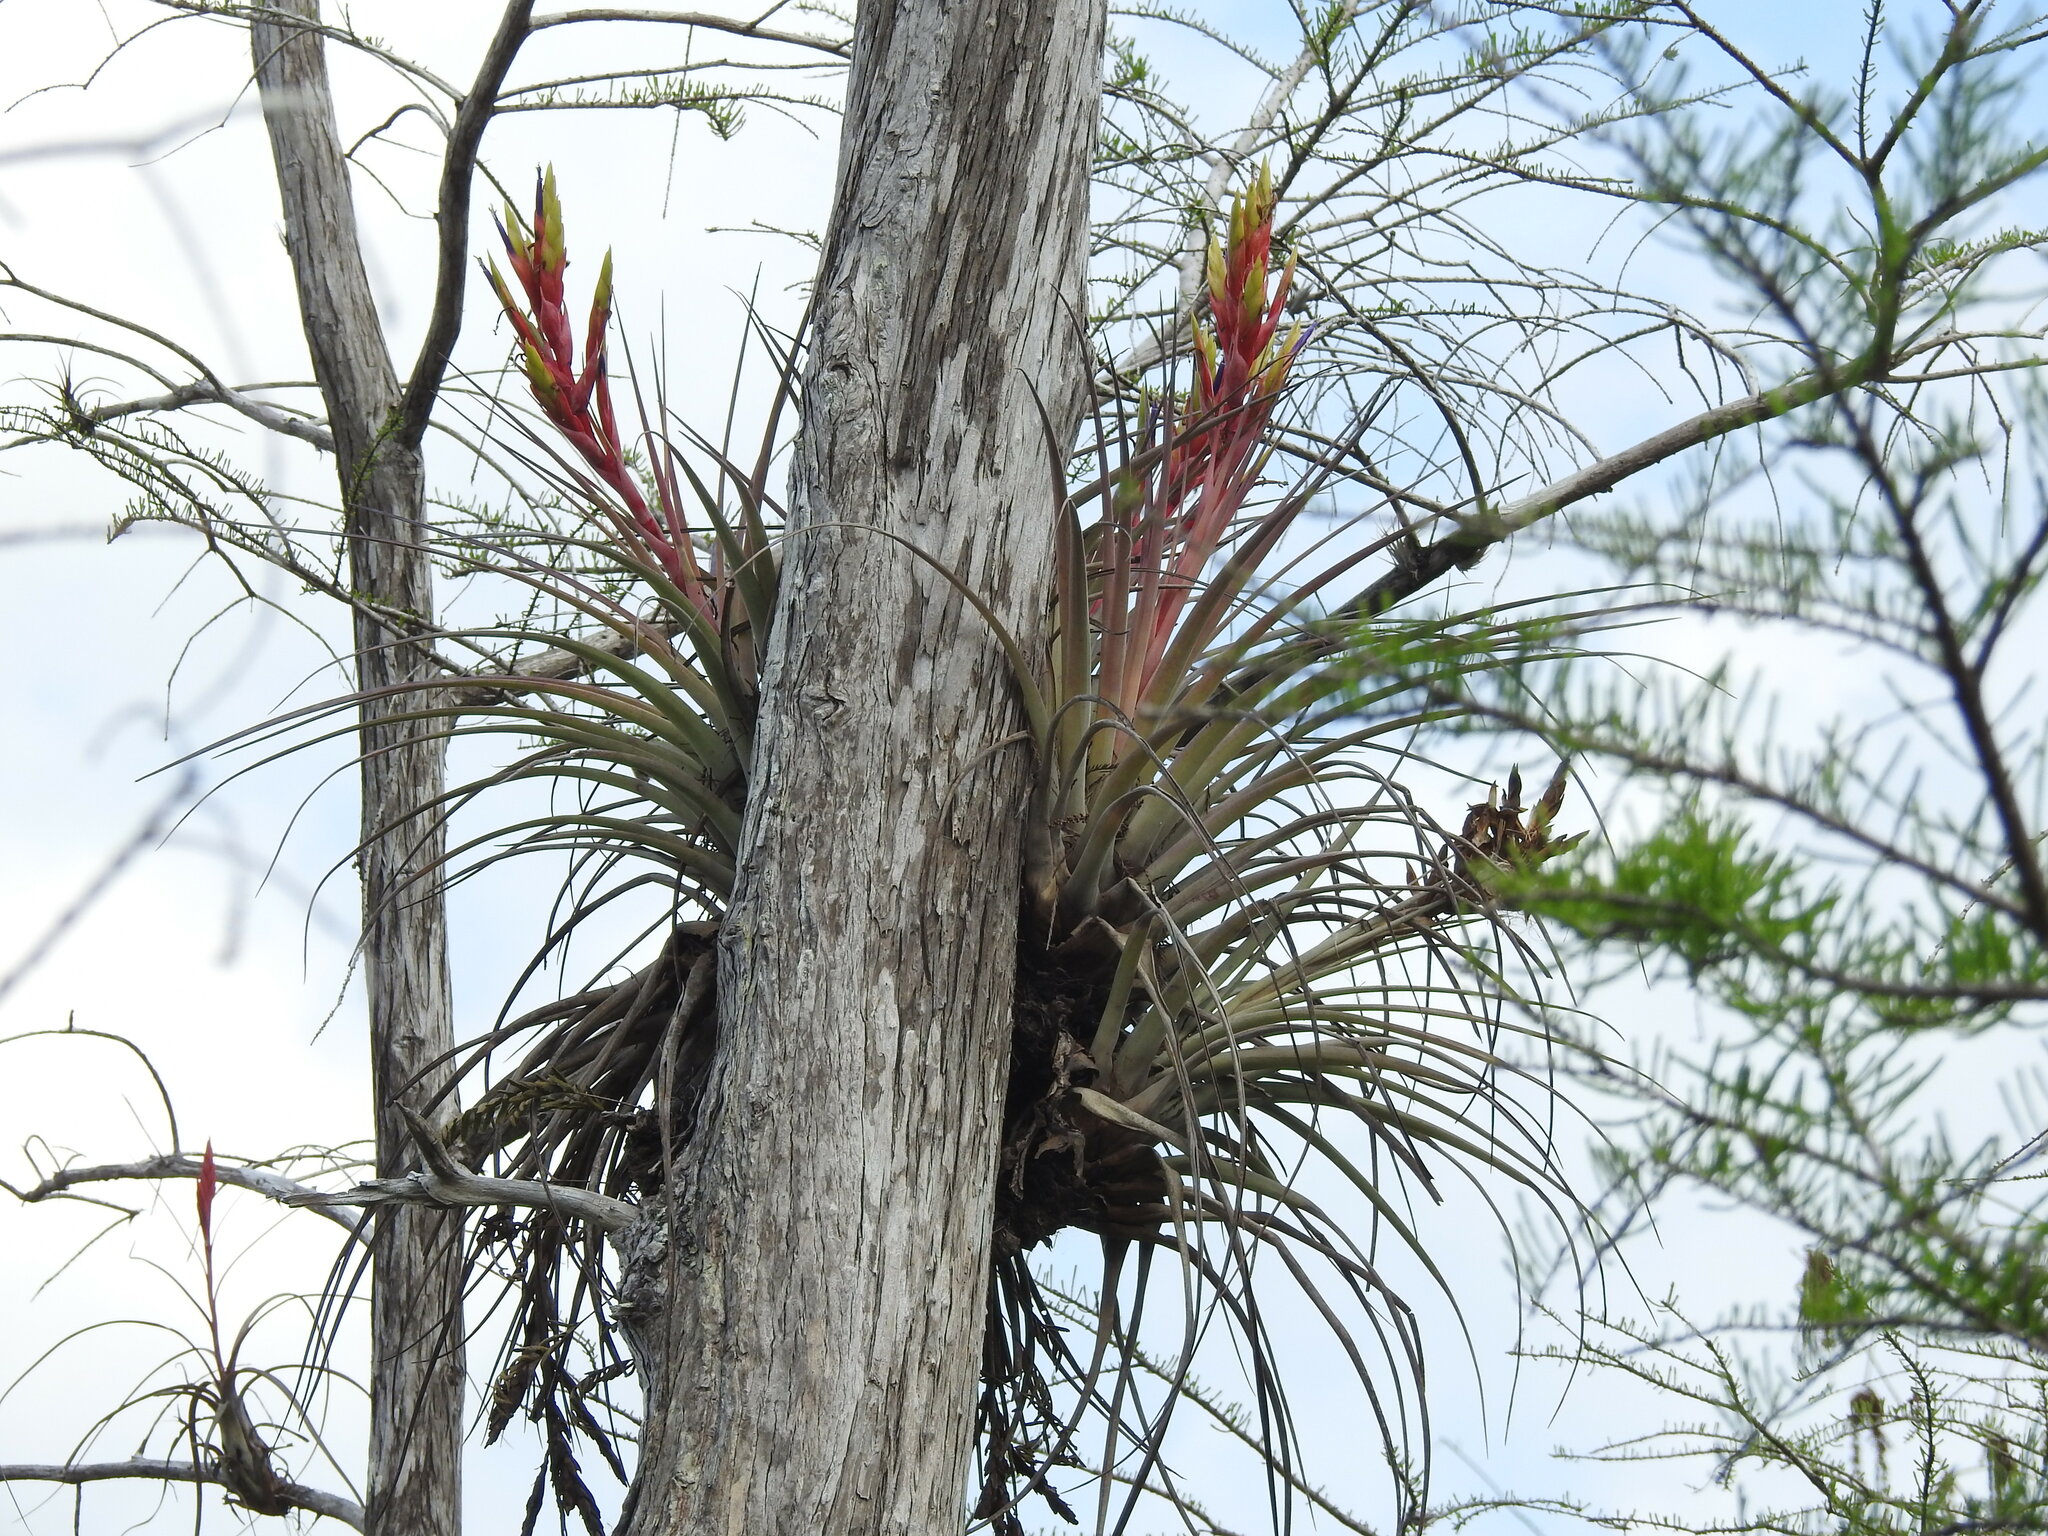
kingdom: Plantae
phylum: Tracheophyta
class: Liliopsida
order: Poales
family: Bromeliaceae
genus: Tillandsia
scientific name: Tillandsia fasciculata
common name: Giant airplant
